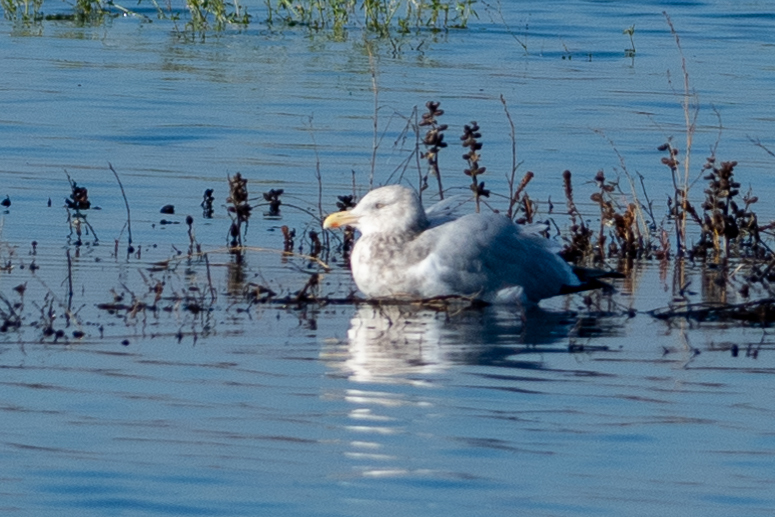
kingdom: Animalia
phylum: Chordata
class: Aves
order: Charadriiformes
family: Laridae
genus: Larus
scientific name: Larus argentatus
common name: Herring gull
